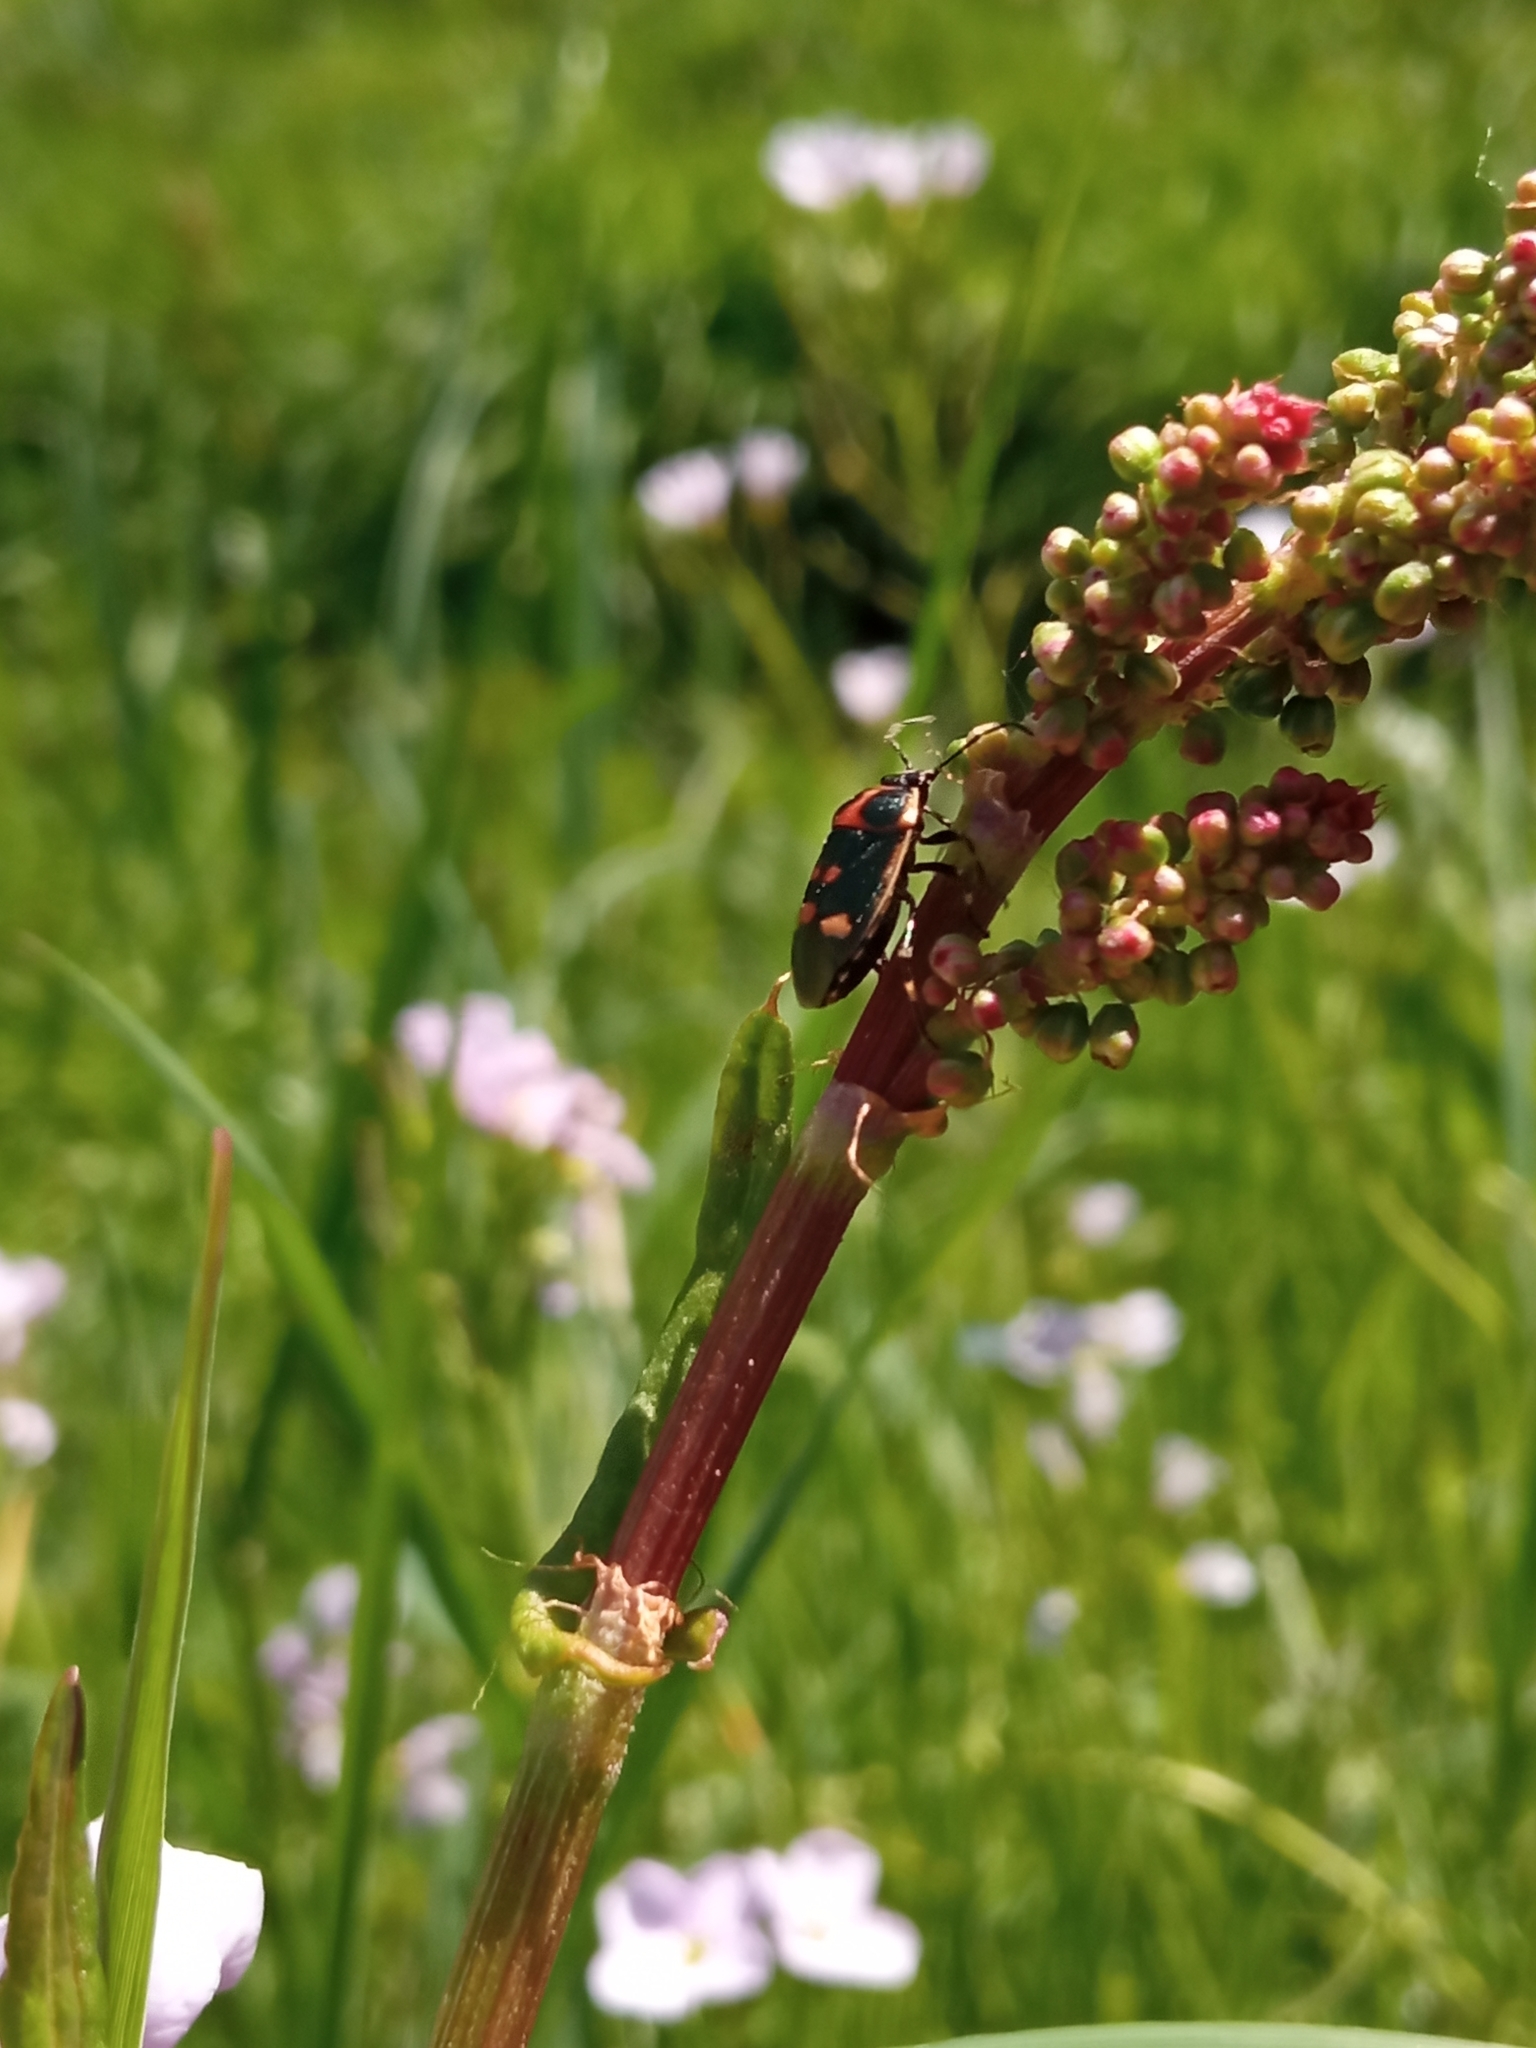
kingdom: Animalia
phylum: Arthropoda
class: Insecta
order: Hemiptera
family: Pentatomidae
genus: Eurydema
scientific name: Eurydema oleracea
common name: Cabbage bug
